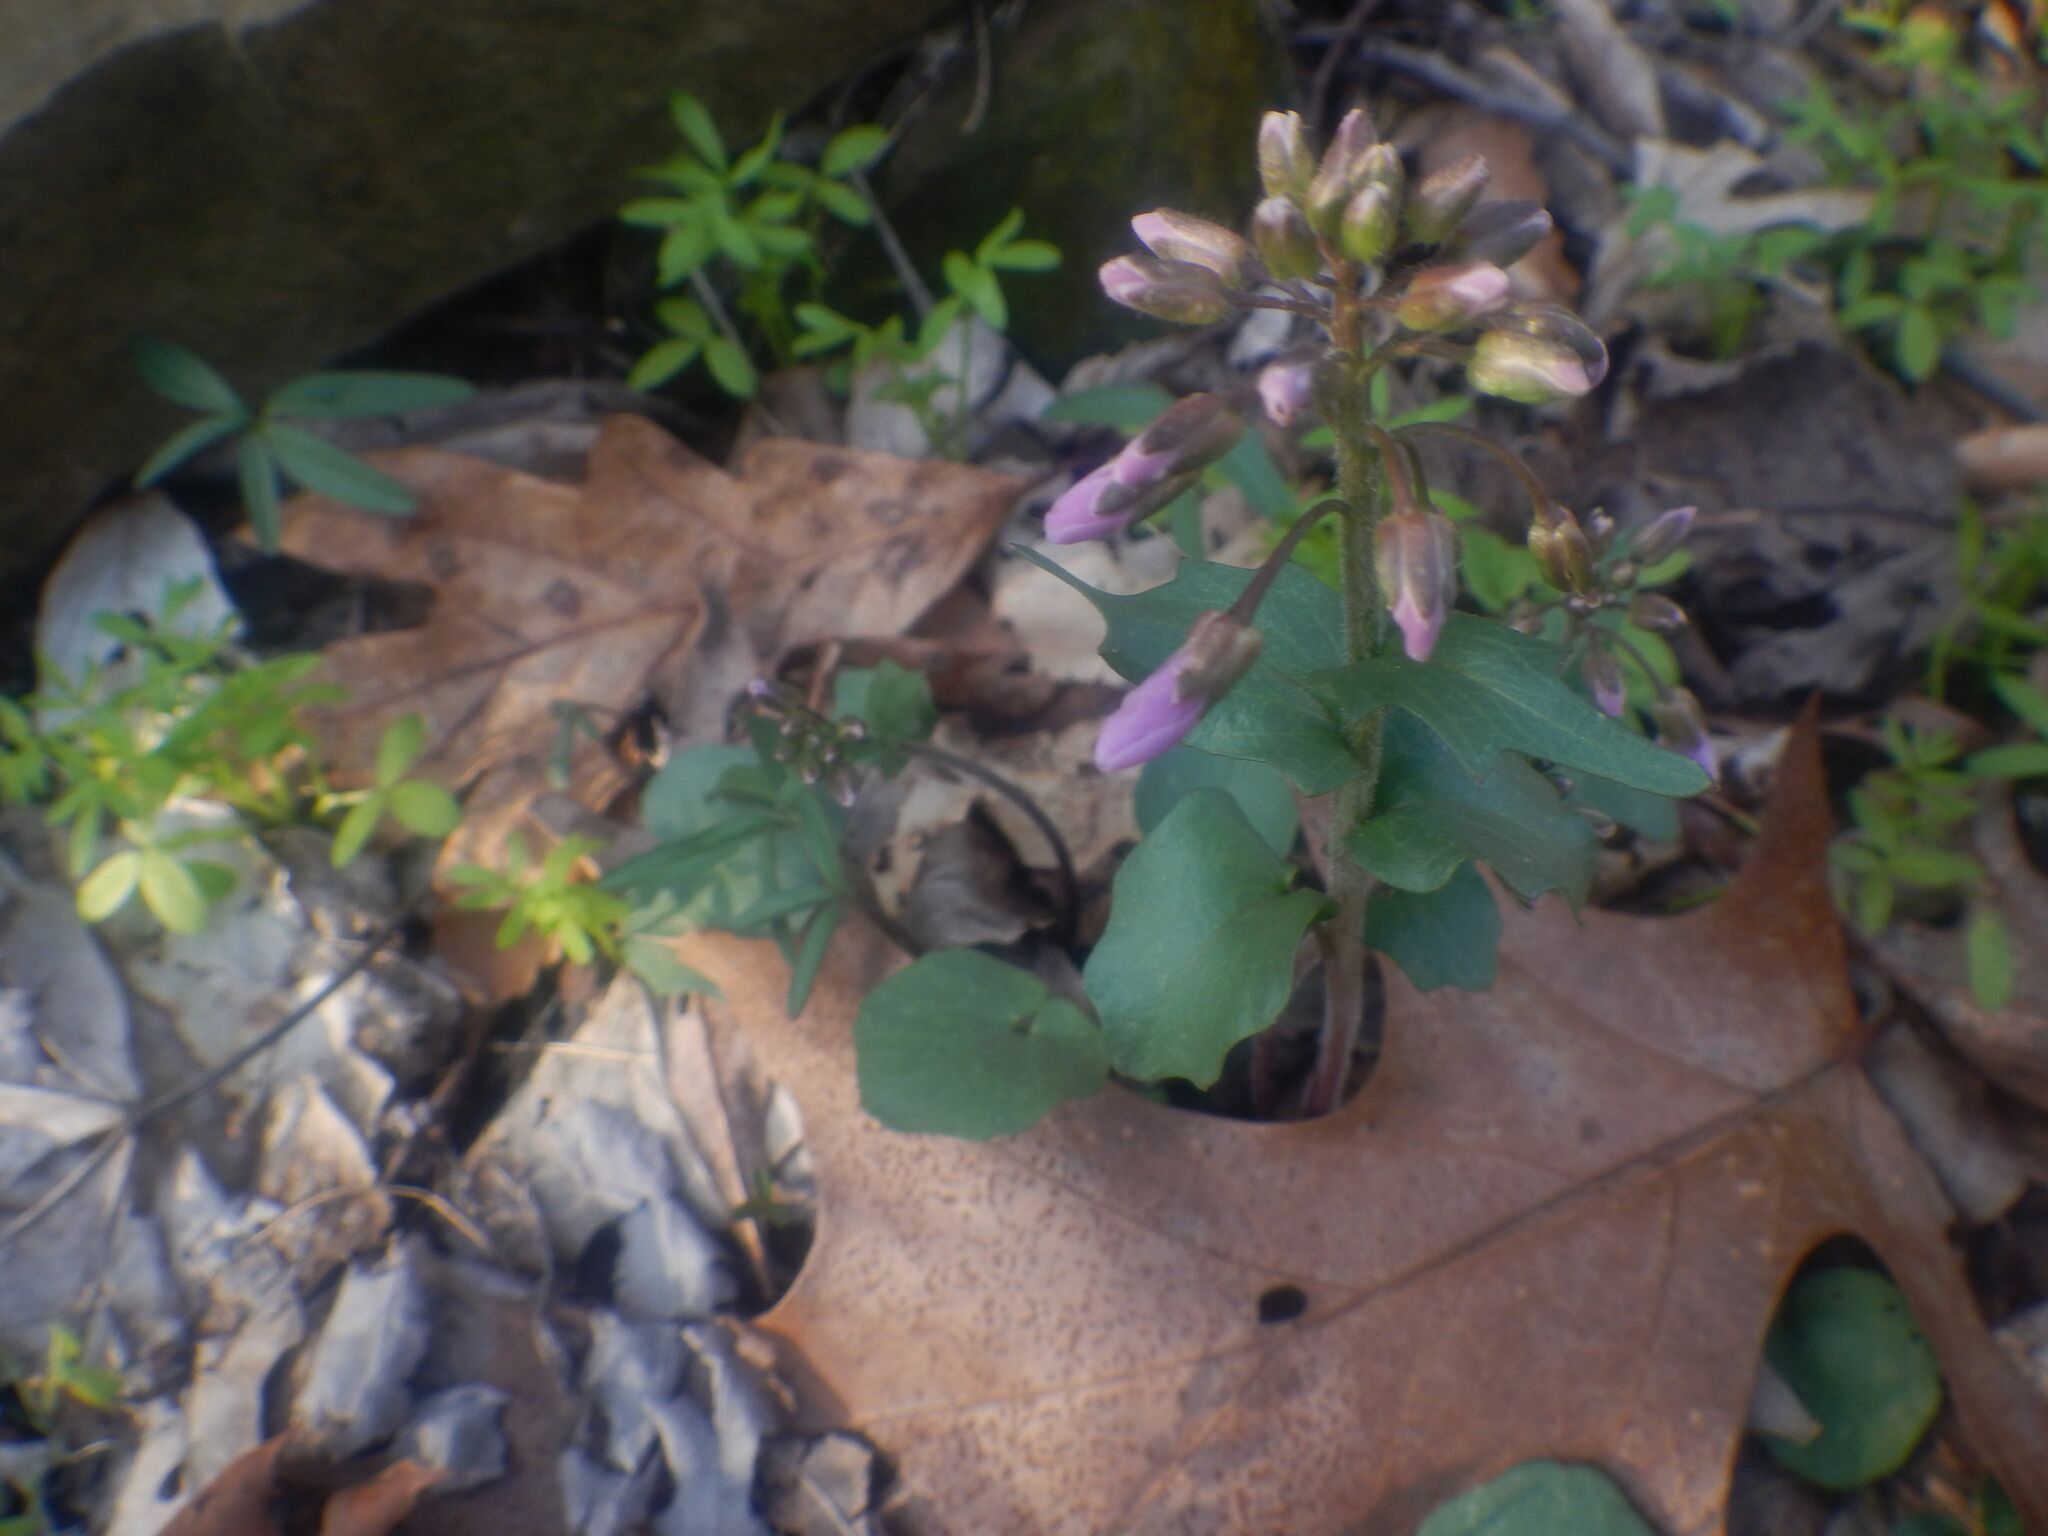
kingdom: Plantae
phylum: Tracheophyta
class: Magnoliopsida
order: Brassicales
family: Brassicaceae
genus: Cardamine
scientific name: Cardamine douglassii
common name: Purple cress
